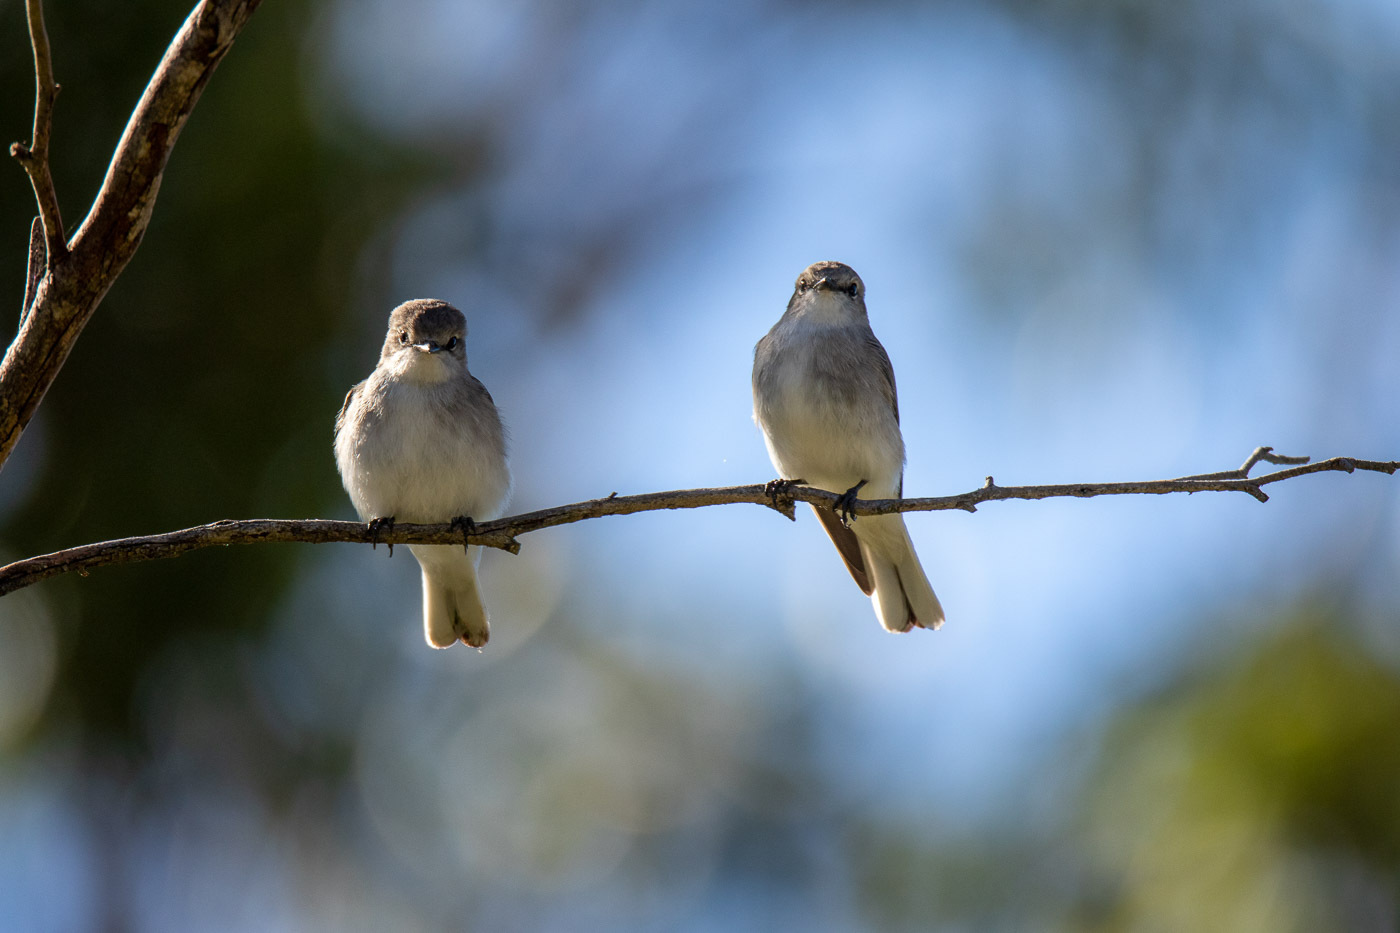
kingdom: Animalia
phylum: Chordata
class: Aves
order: Passeriformes
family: Petroicidae
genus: Microeca
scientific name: Microeca fascinans
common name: Jacky winter
